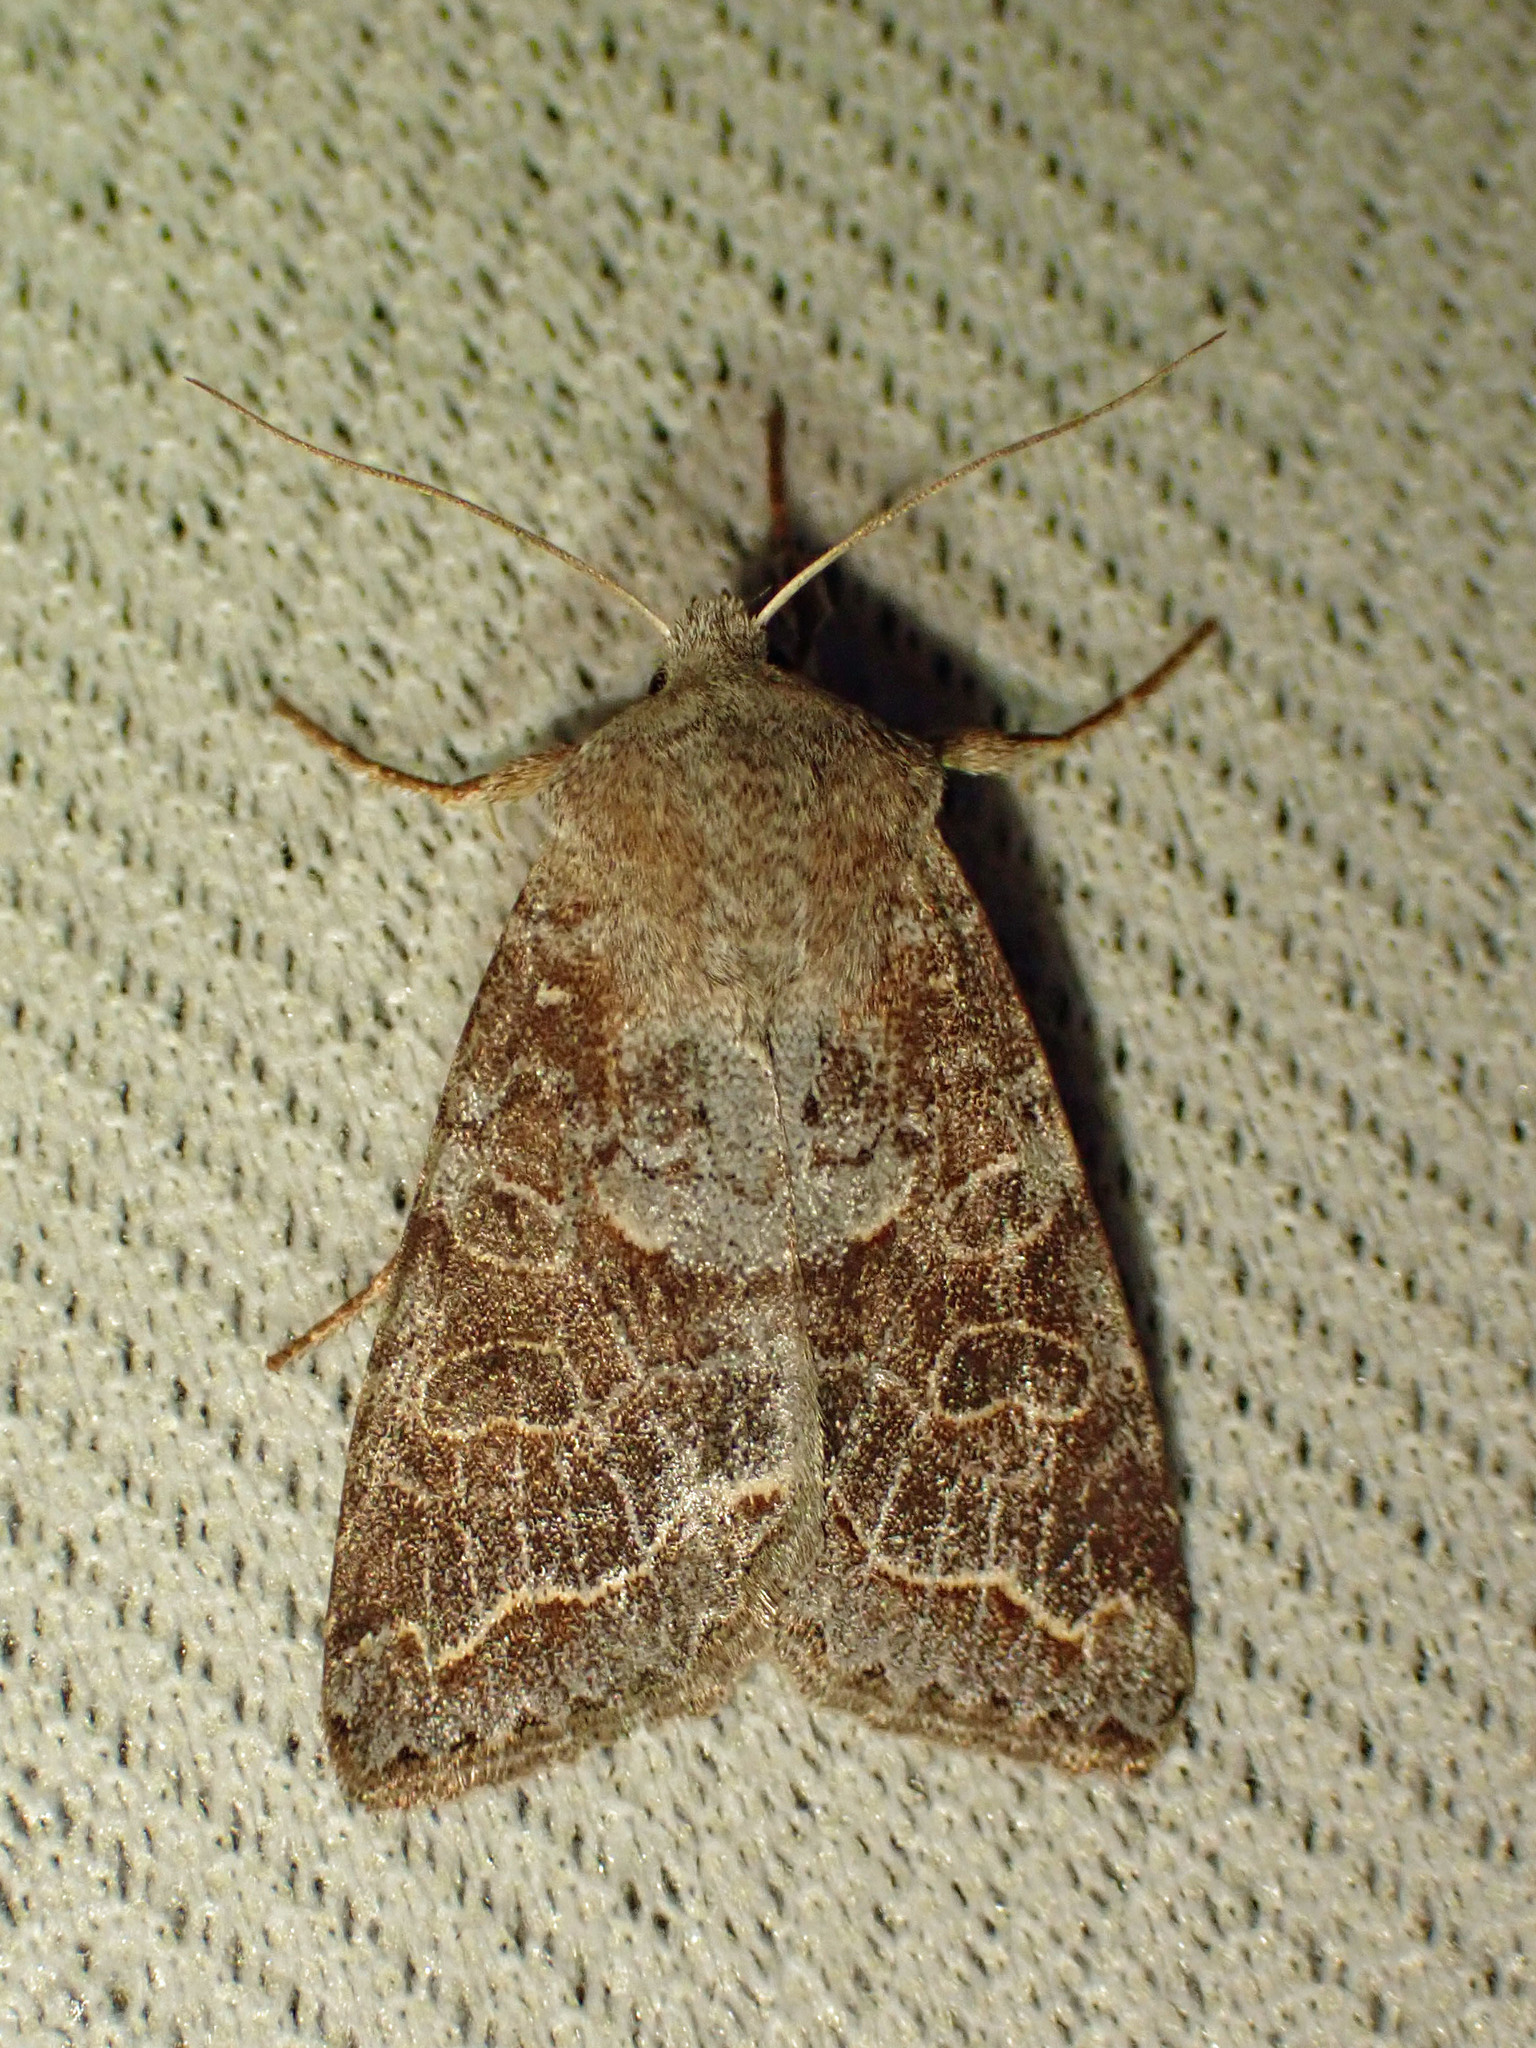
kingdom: Animalia
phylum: Arthropoda
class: Insecta
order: Lepidoptera
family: Noctuidae
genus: Orthosia
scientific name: Orthosia revicta
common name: Rusty whitesided caterpillar
